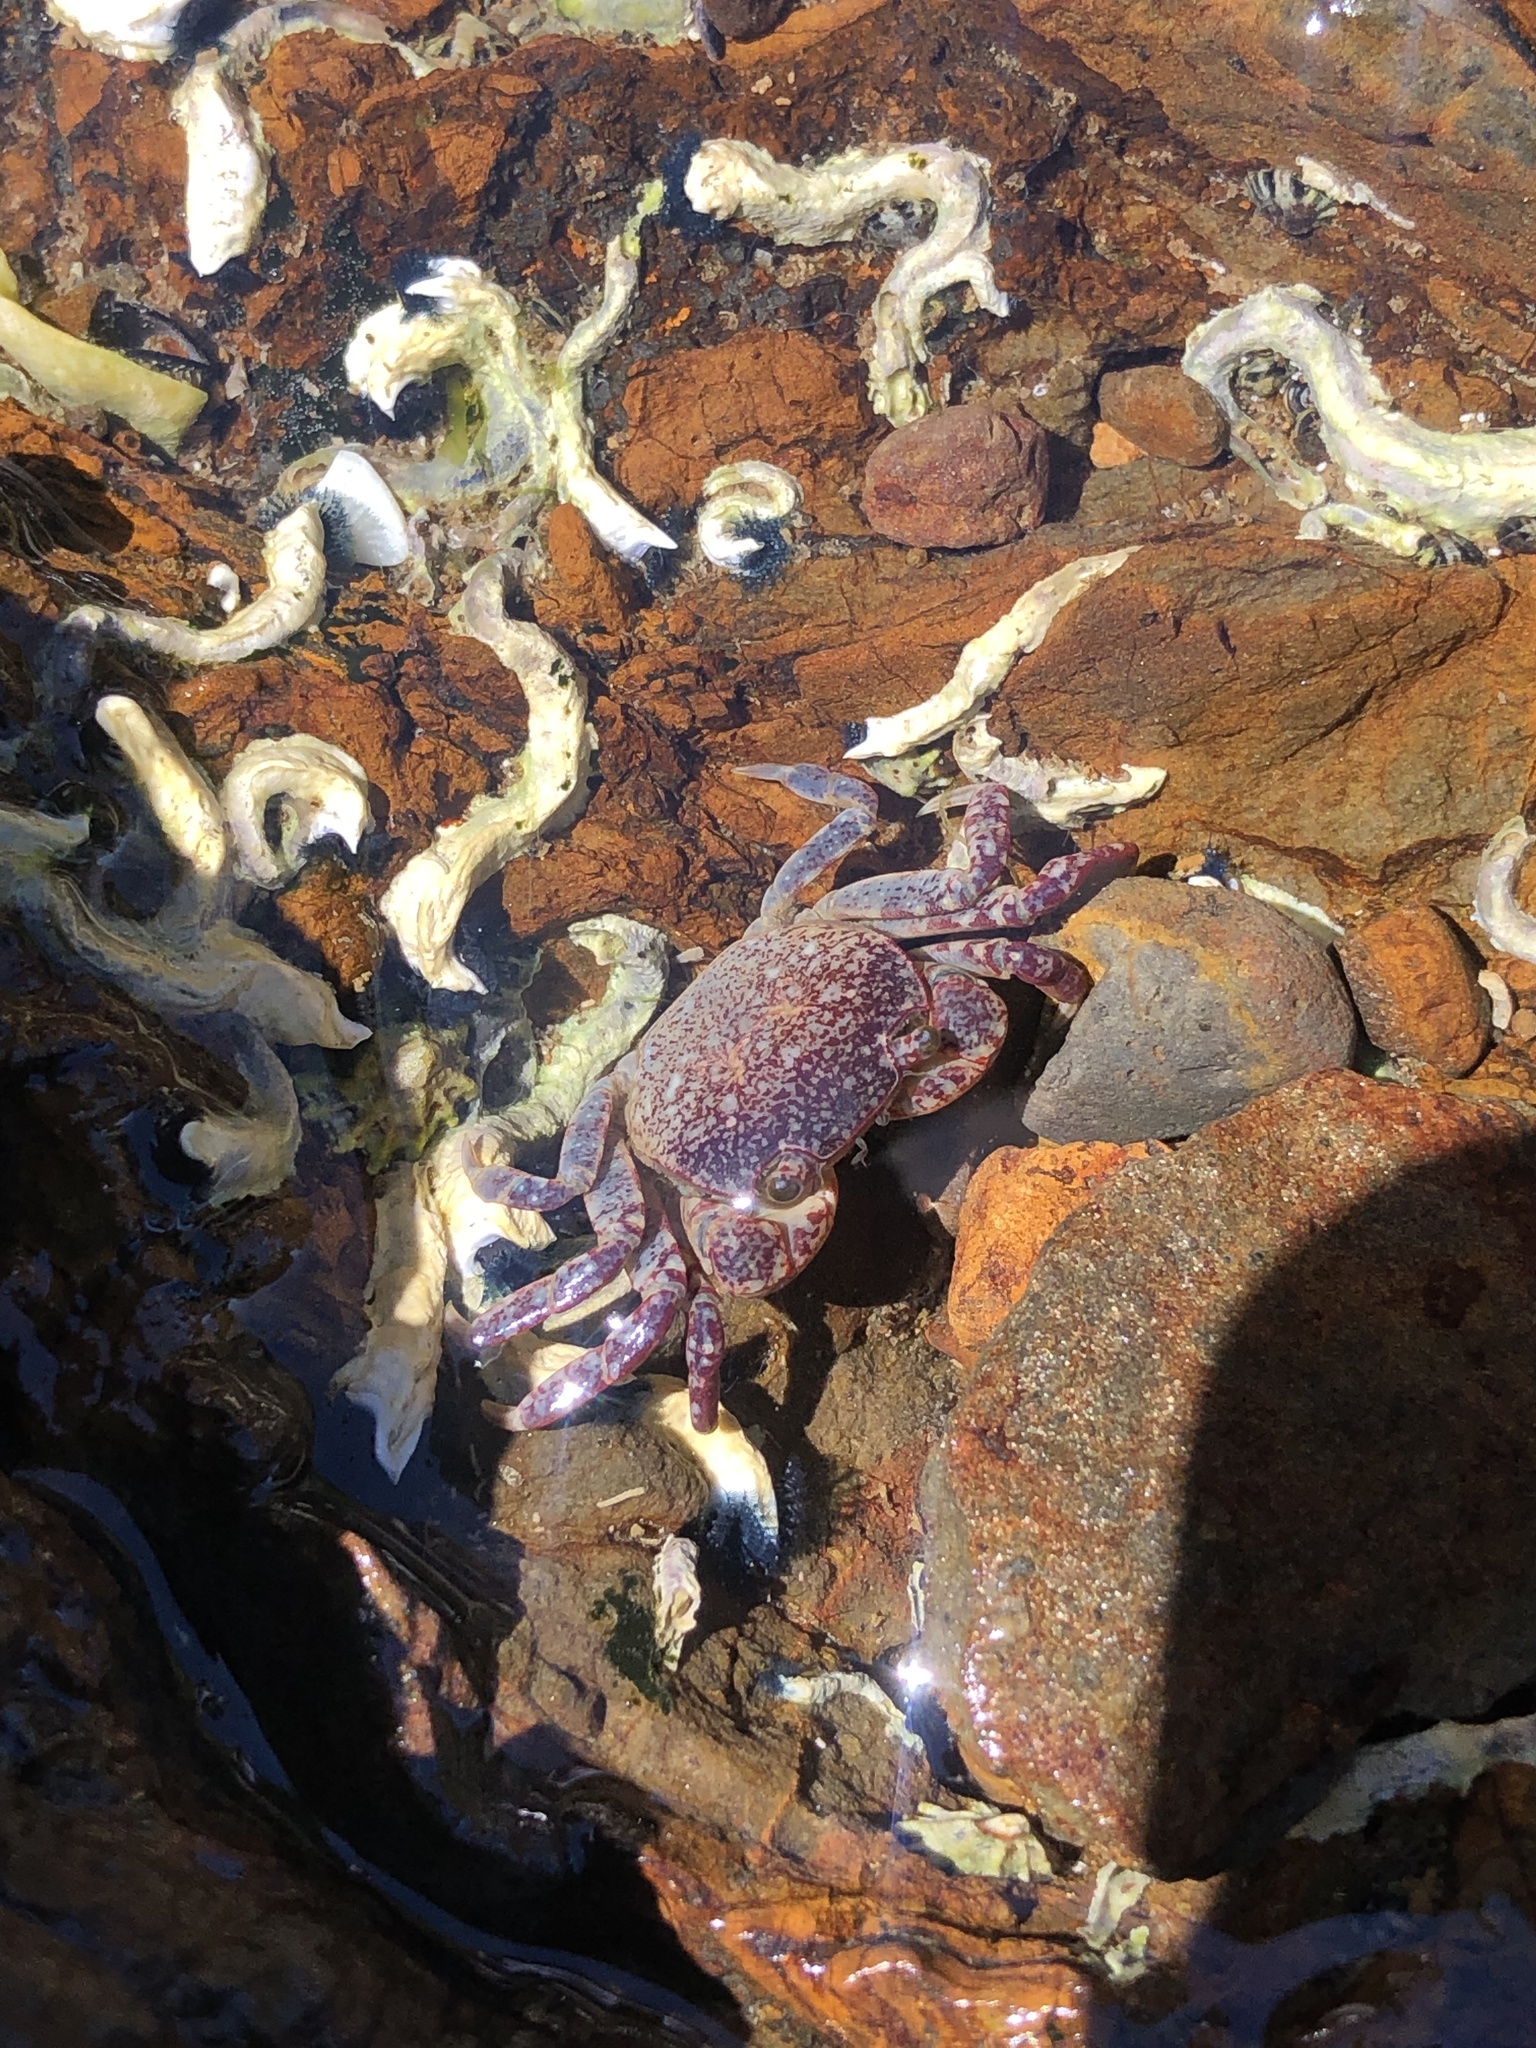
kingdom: Animalia
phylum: Arthropoda
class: Malacostraca
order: Decapoda
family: Varunidae
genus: Cyclograpsus
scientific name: Cyclograpsus lavauxi
